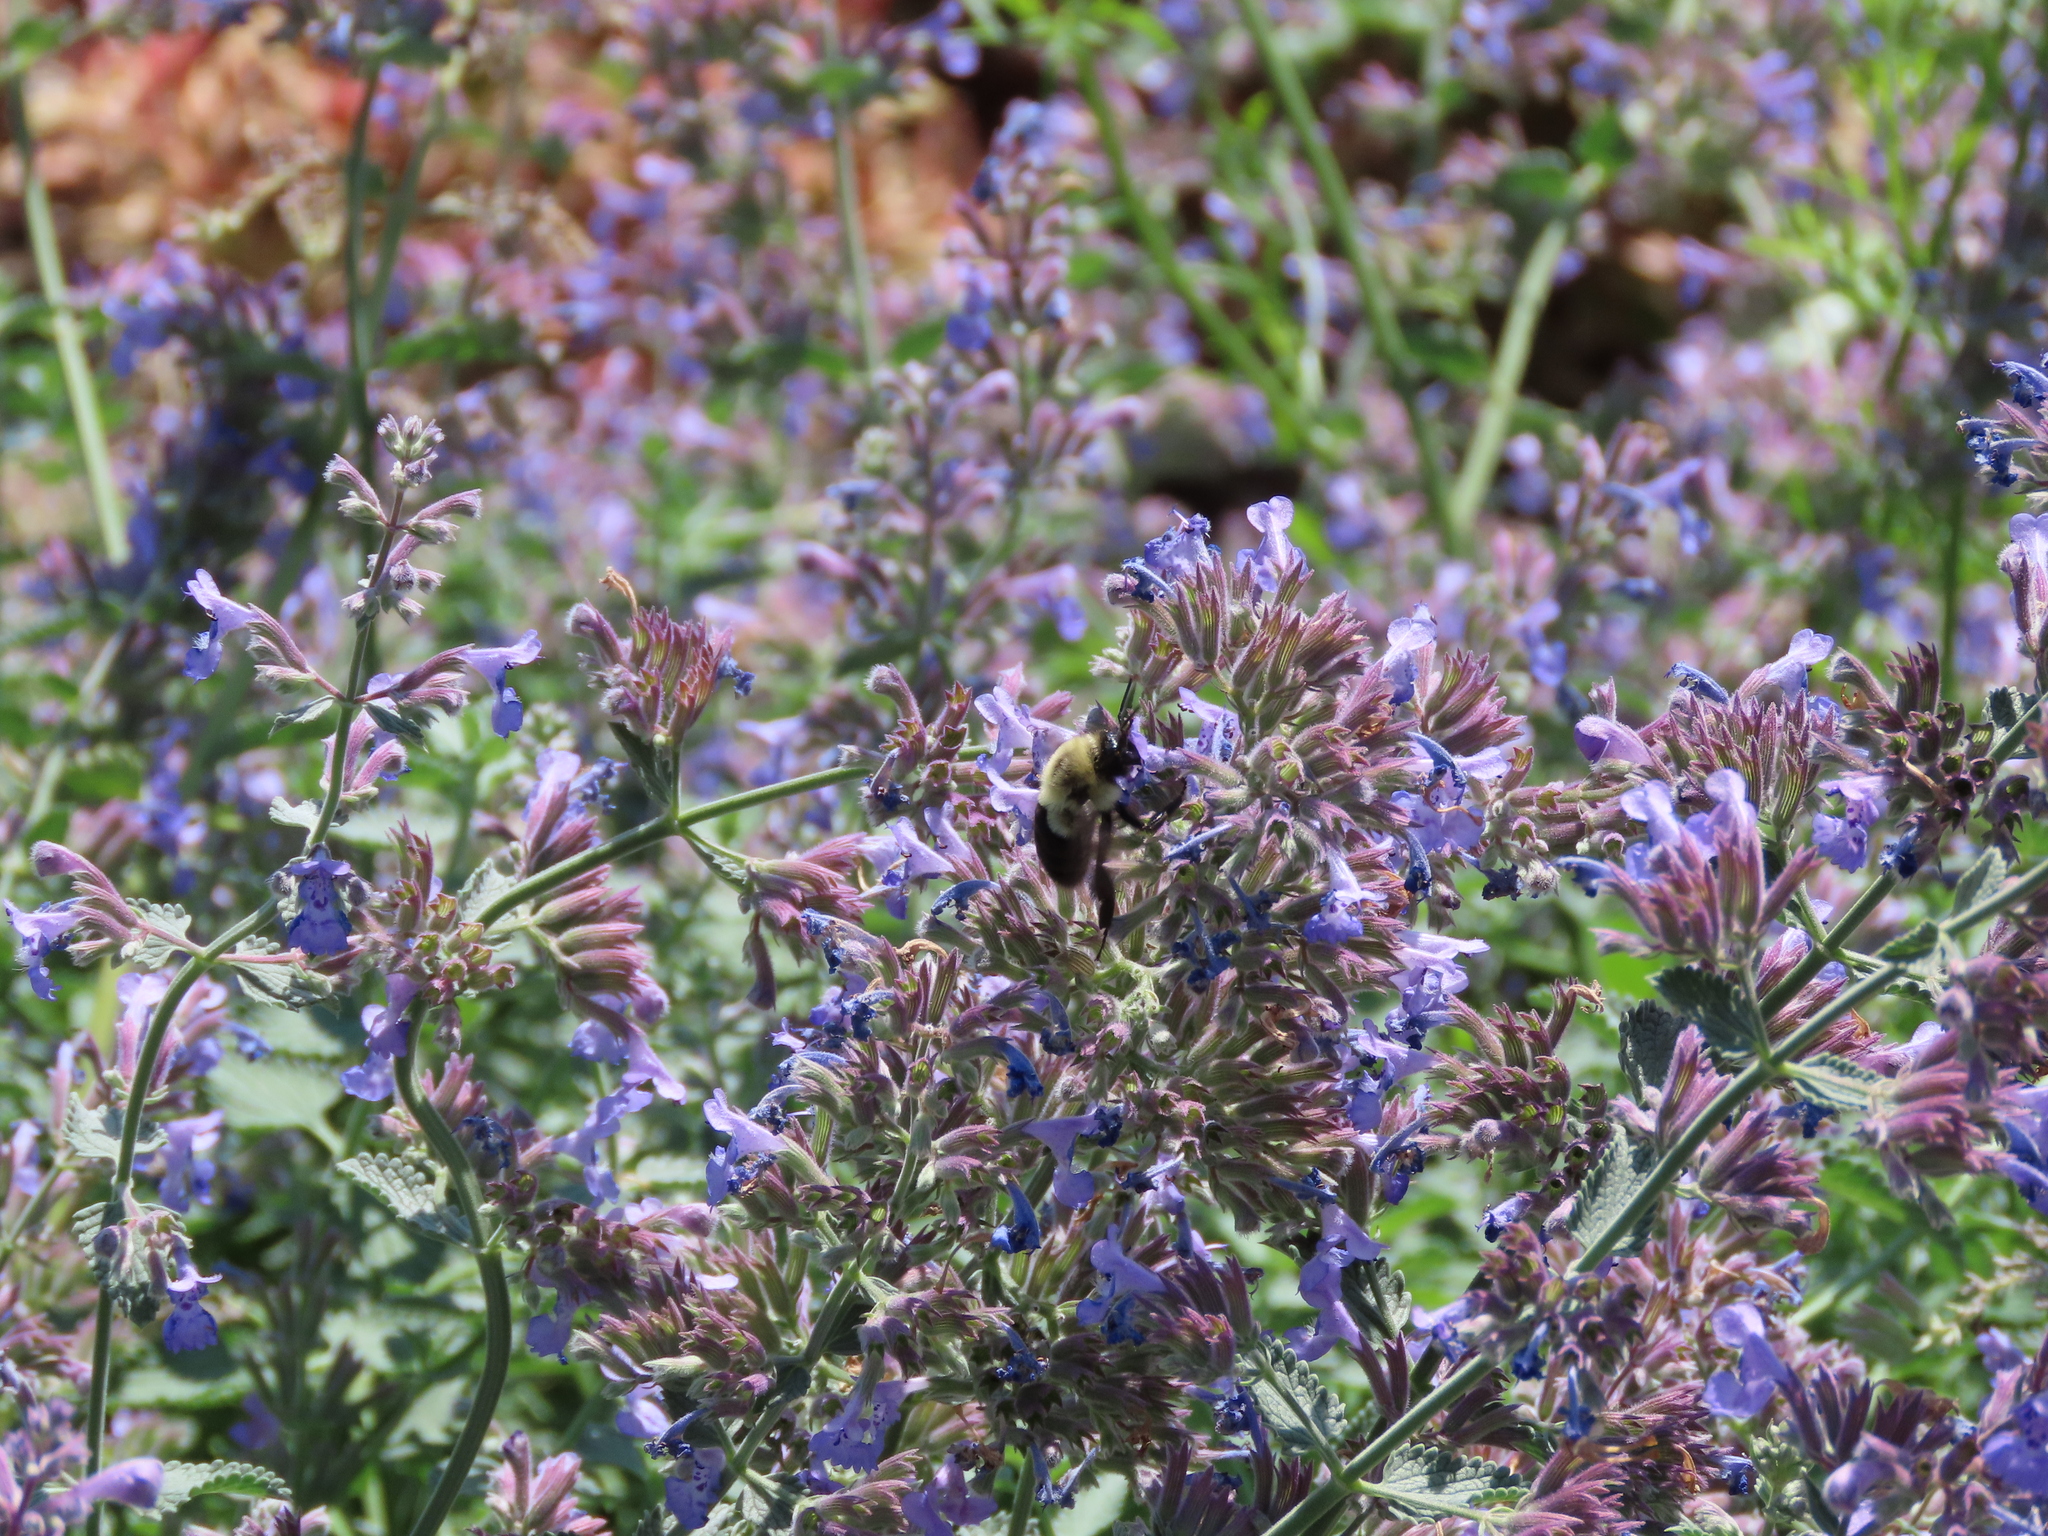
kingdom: Animalia
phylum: Arthropoda
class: Insecta
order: Hymenoptera
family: Apidae
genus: Bombus
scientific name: Bombus impatiens
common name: Common eastern bumble bee
